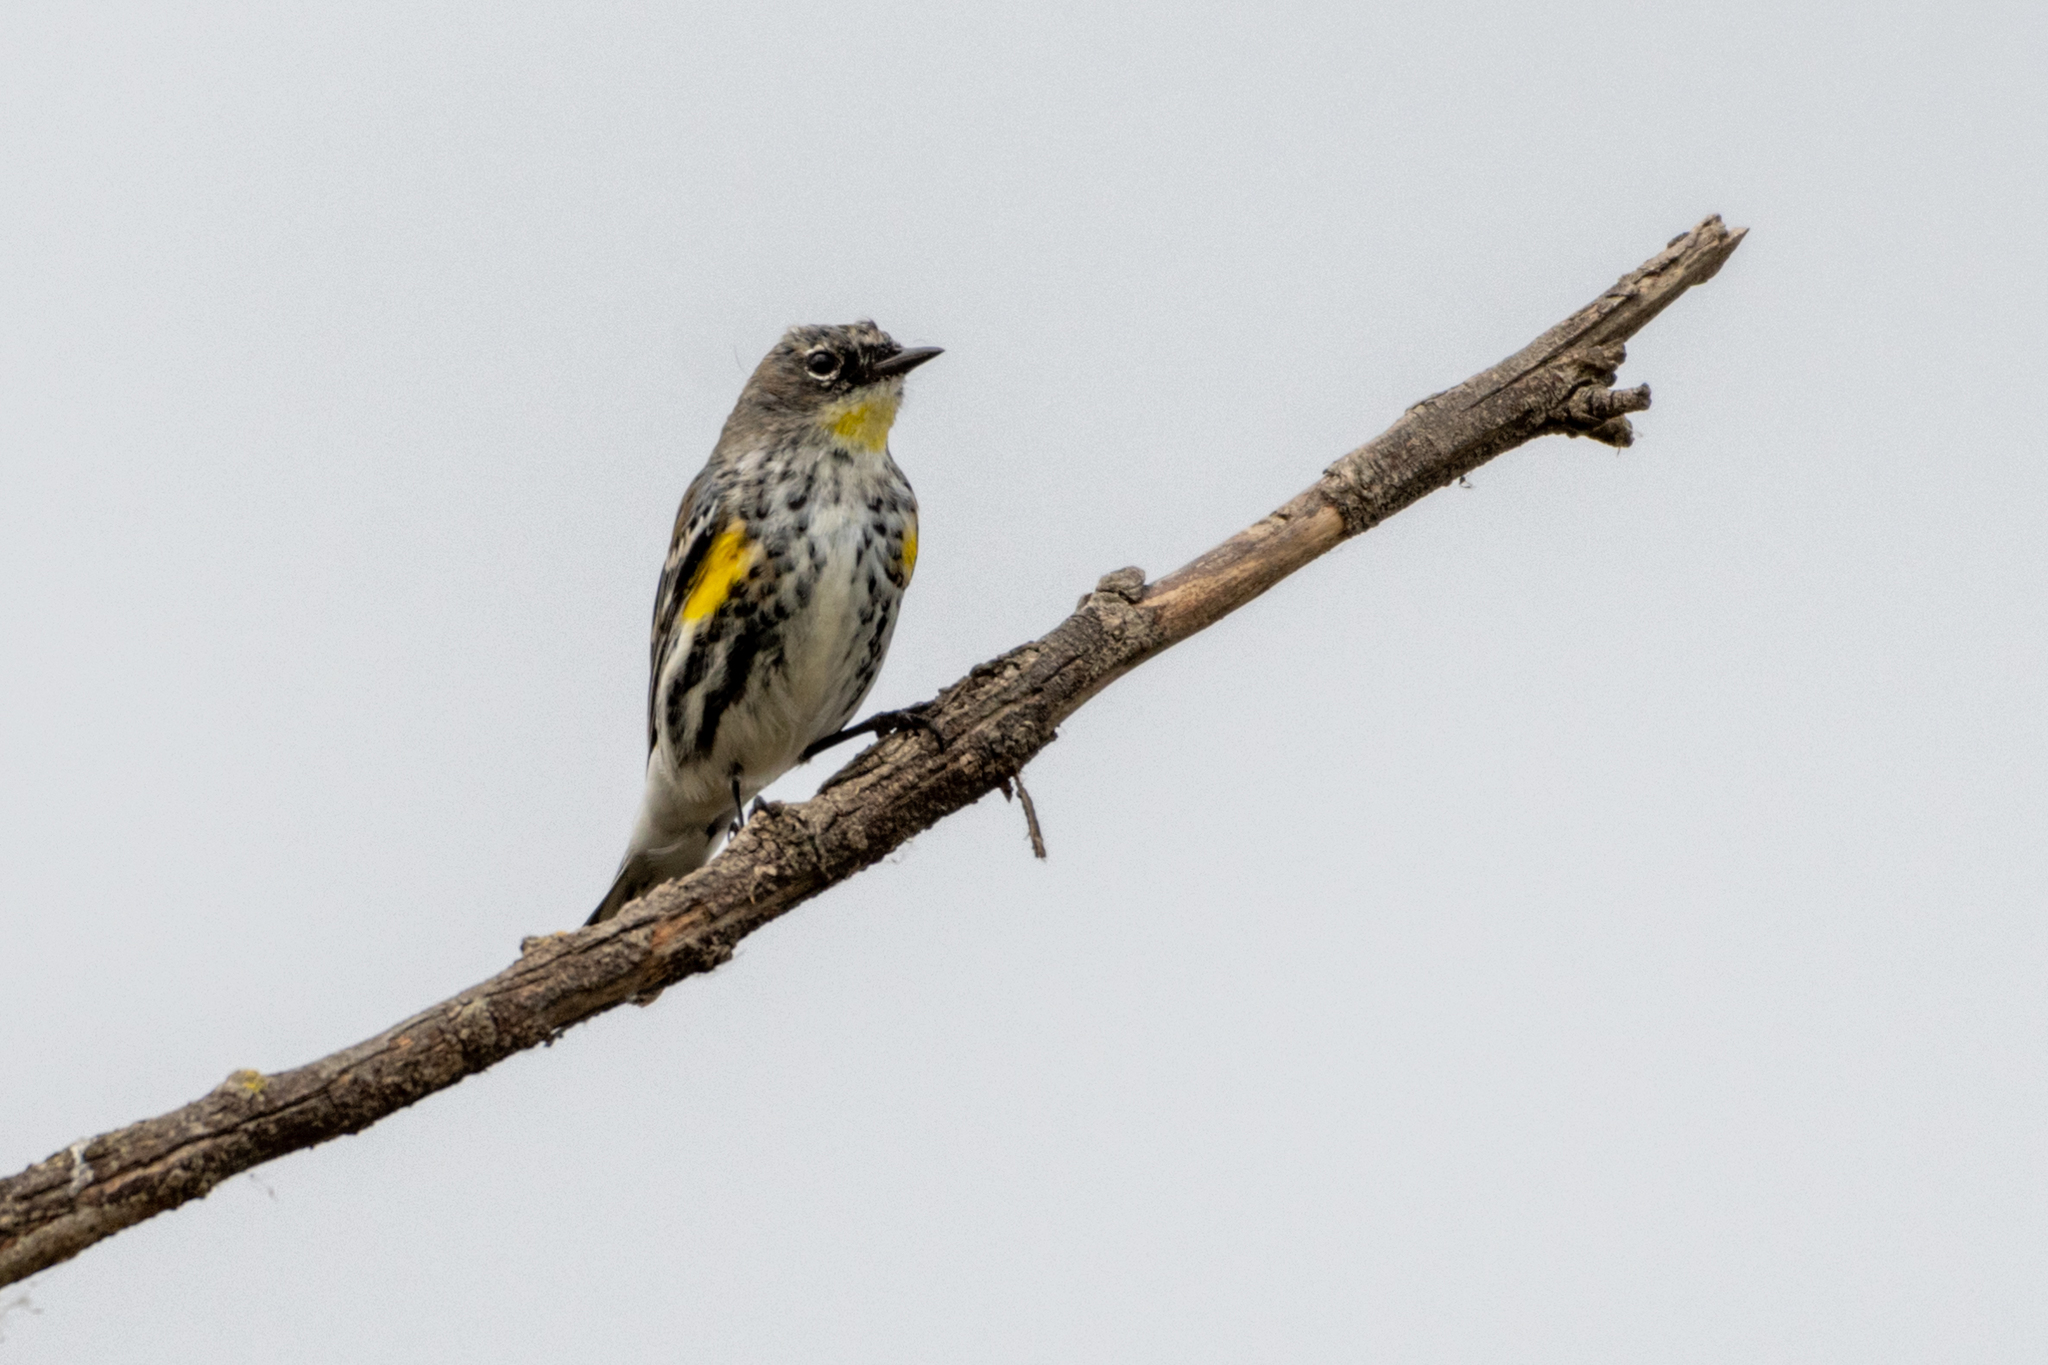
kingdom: Animalia
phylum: Chordata
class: Aves
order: Passeriformes
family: Parulidae
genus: Setophaga
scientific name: Setophaga coronata
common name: Myrtle warbler
